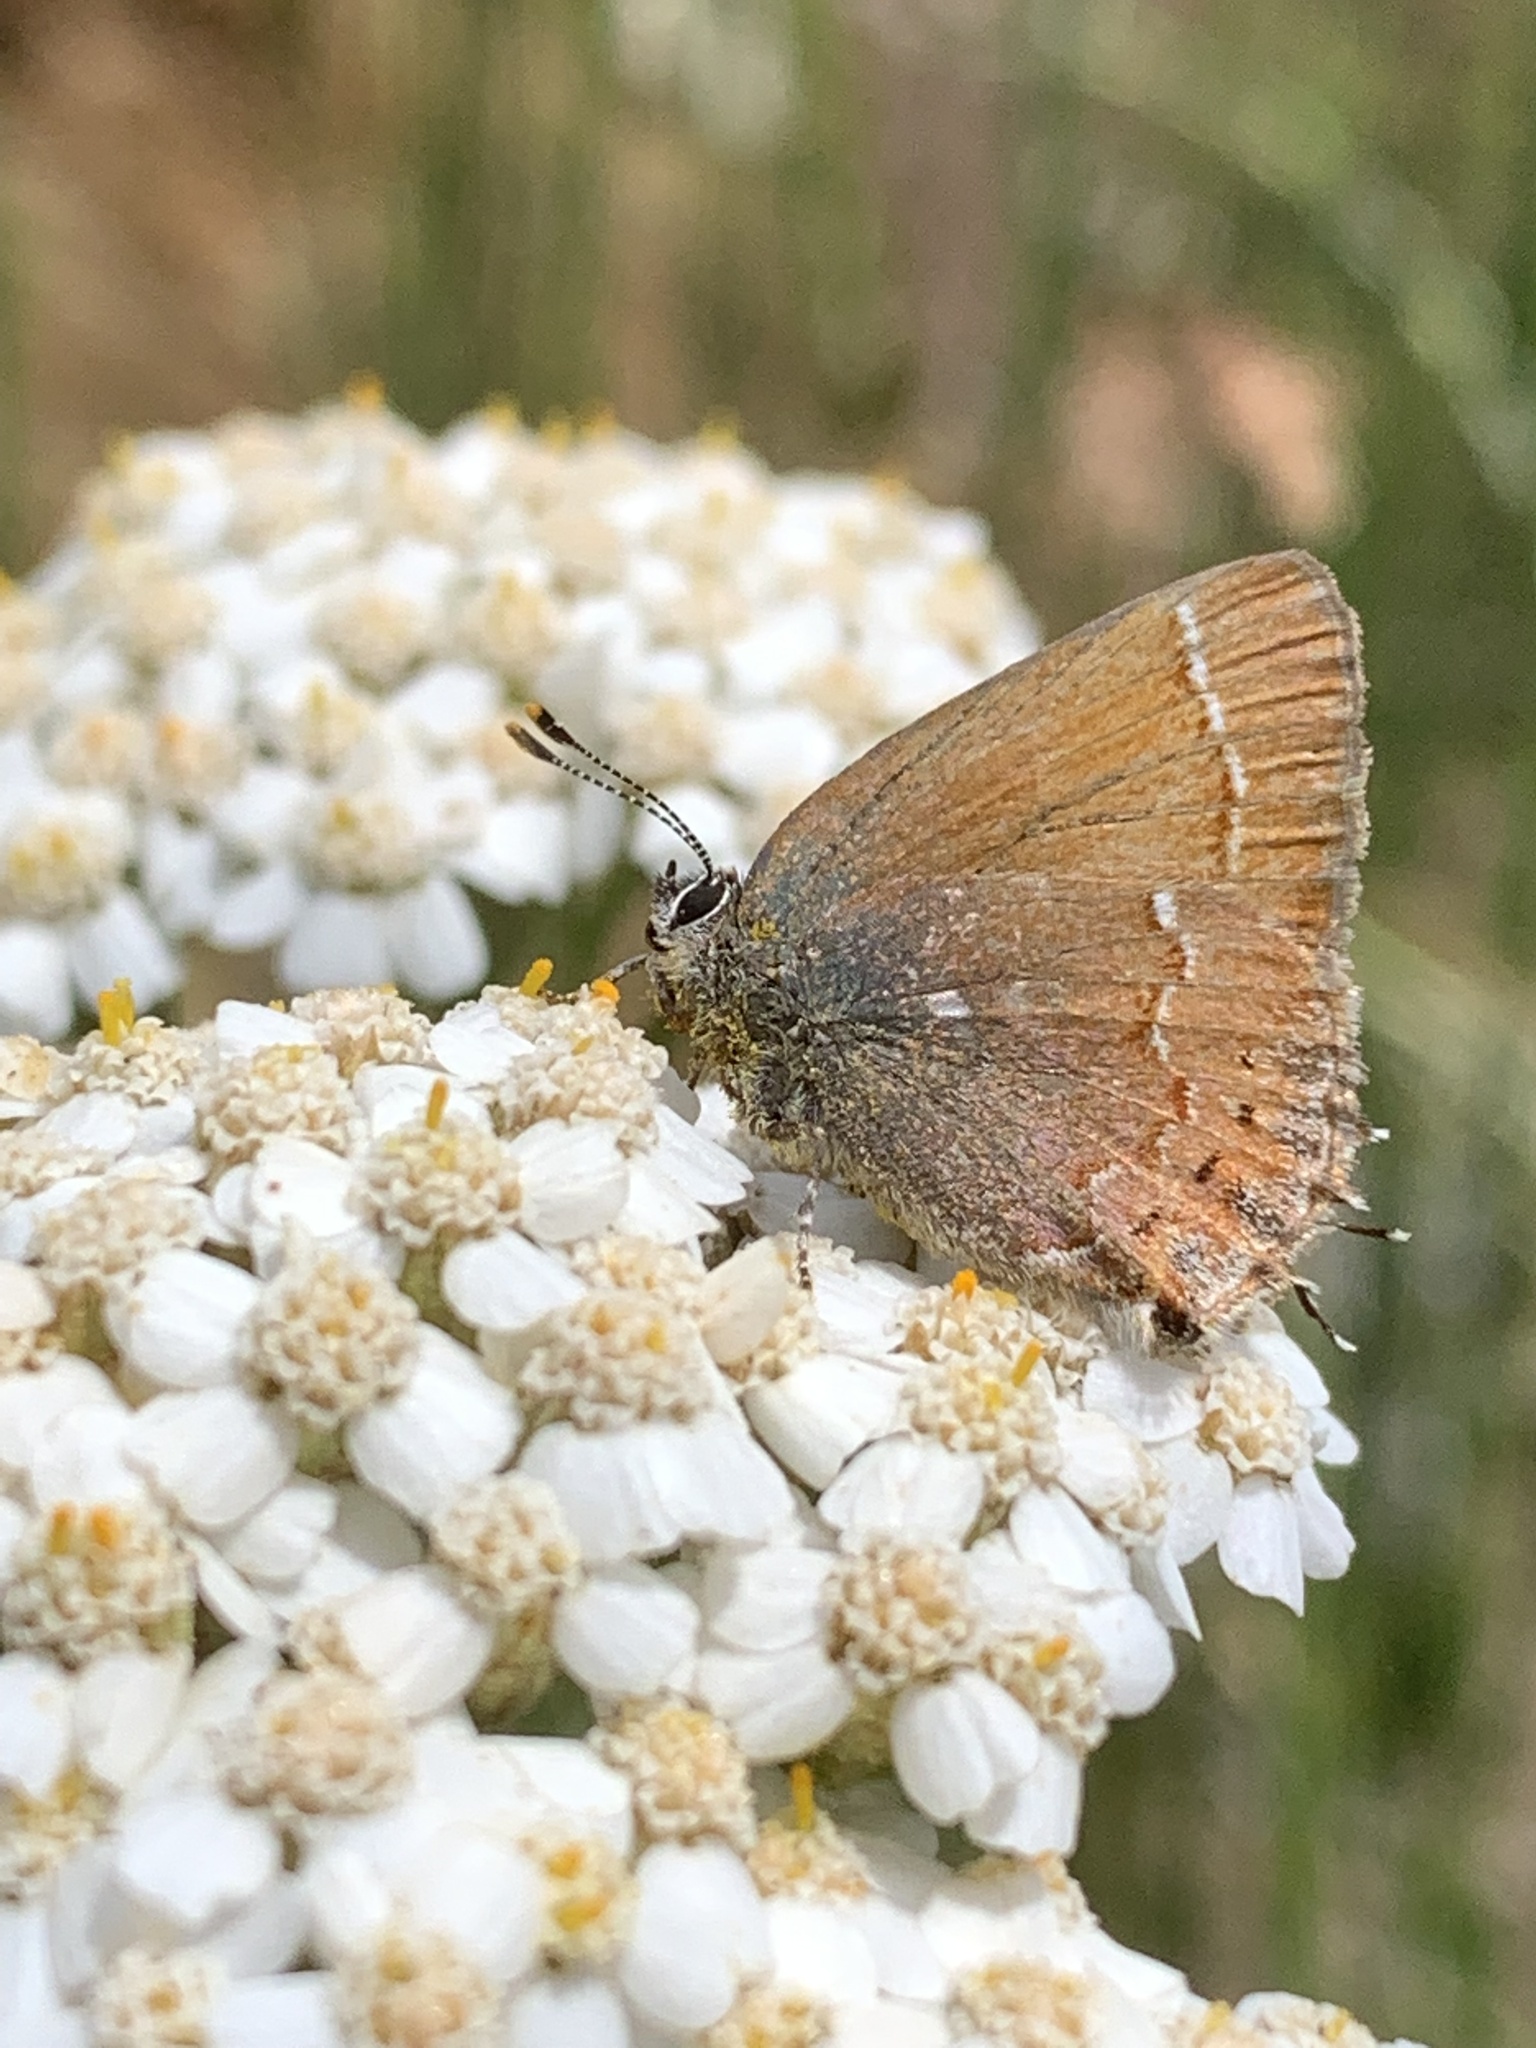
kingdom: Animalia
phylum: Arthropoda
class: Insecta
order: Lepidoptera
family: Lycaenidae
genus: Mitoura
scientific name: Mitoura gryneus
